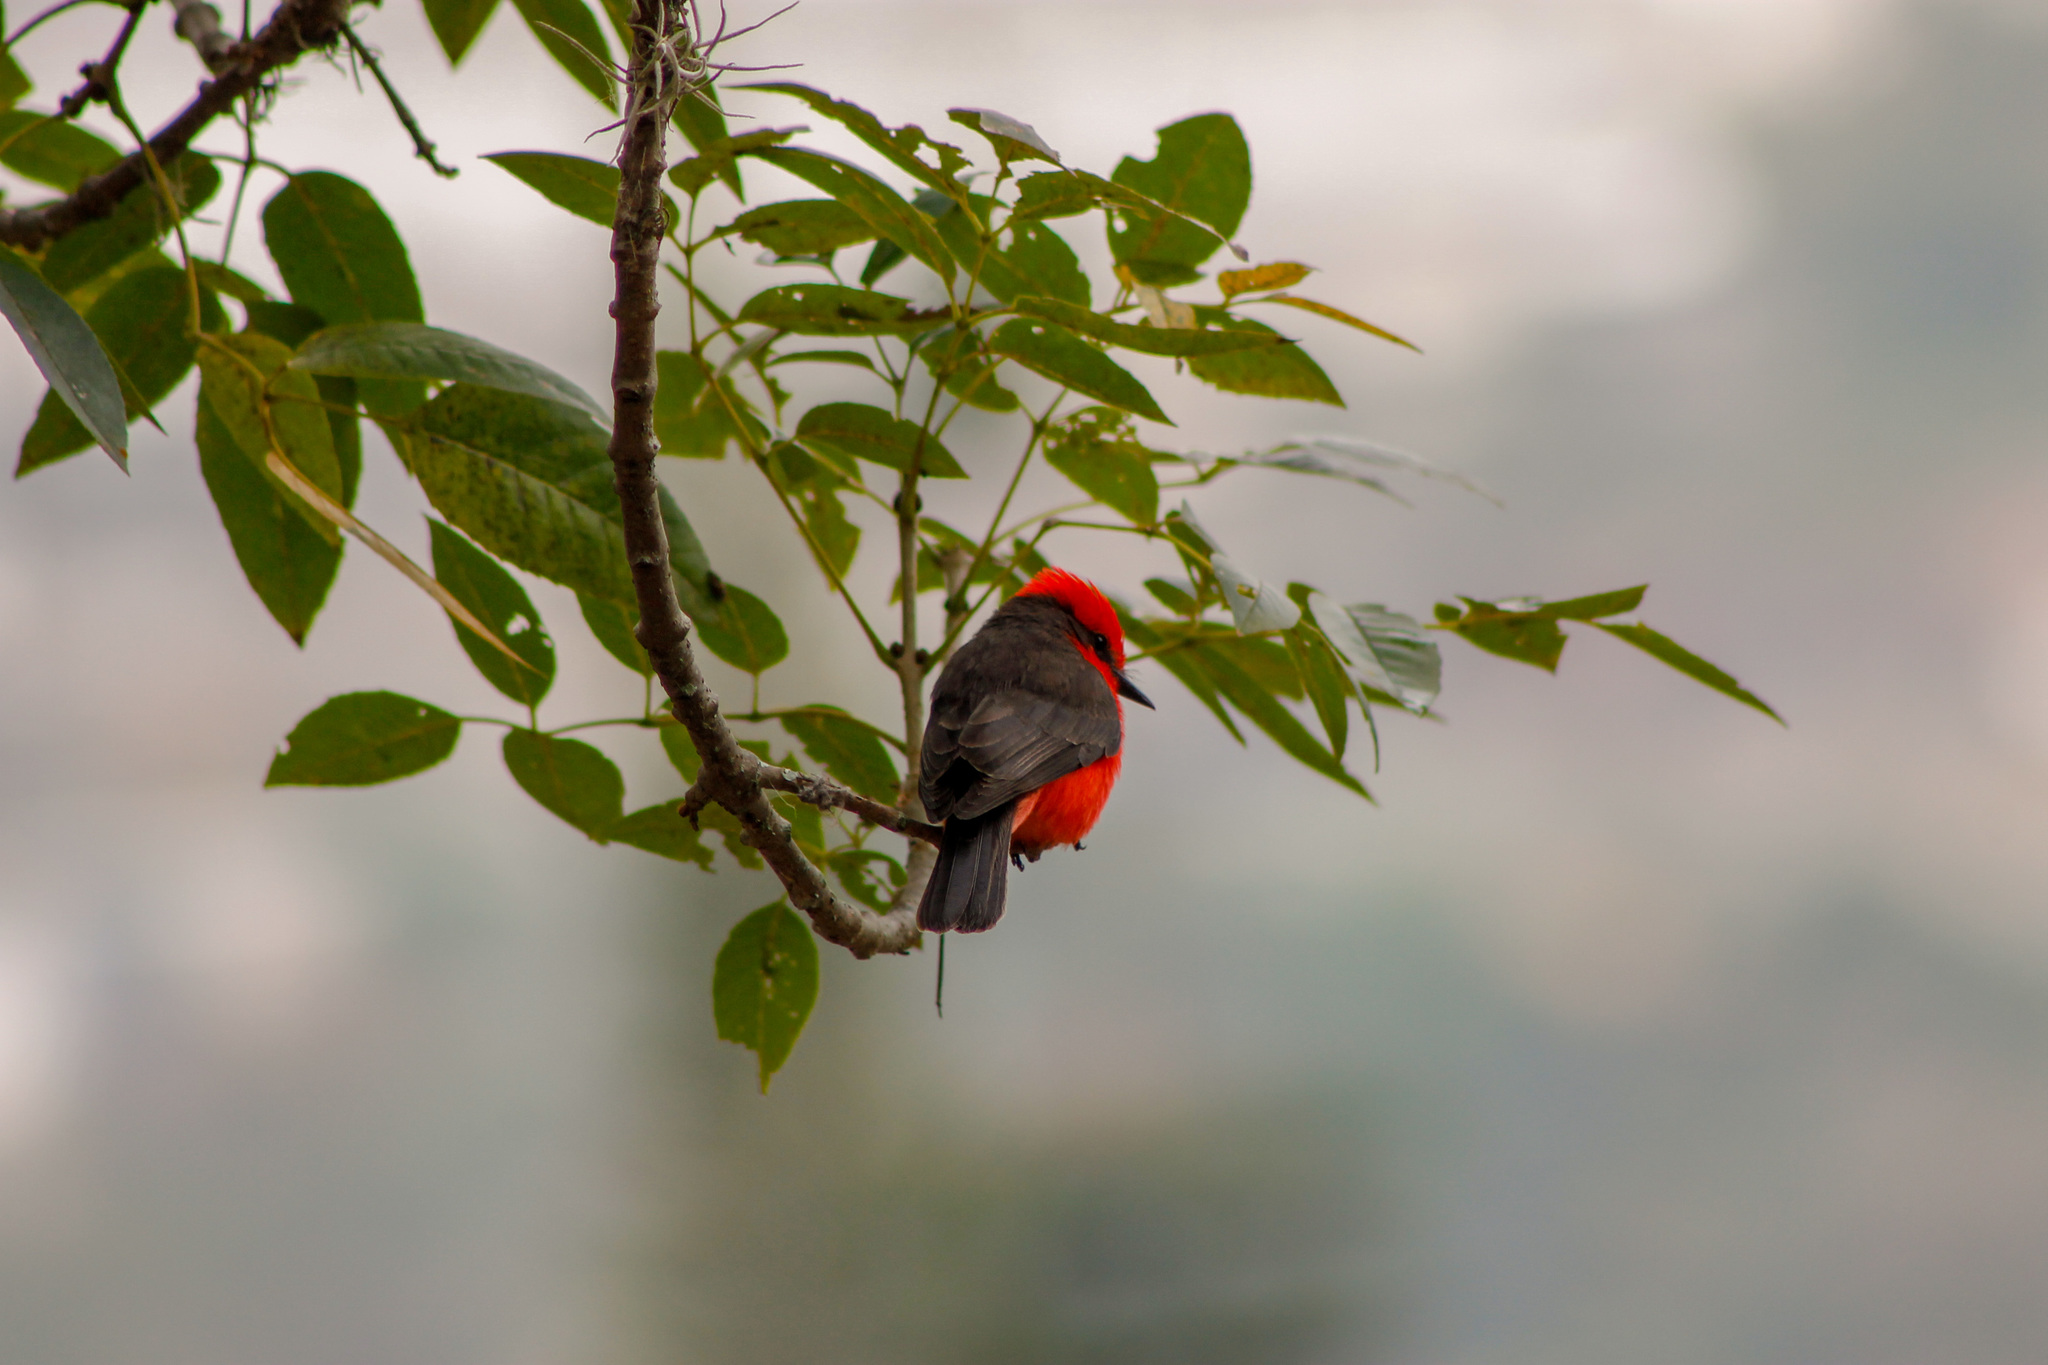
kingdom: Animalia
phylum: Chordata
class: Aves
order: Passeriformes
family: Tyrannidae
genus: Pyrocephalus
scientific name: Pyrocephalus rubinus
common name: Vermilion flycatcher
